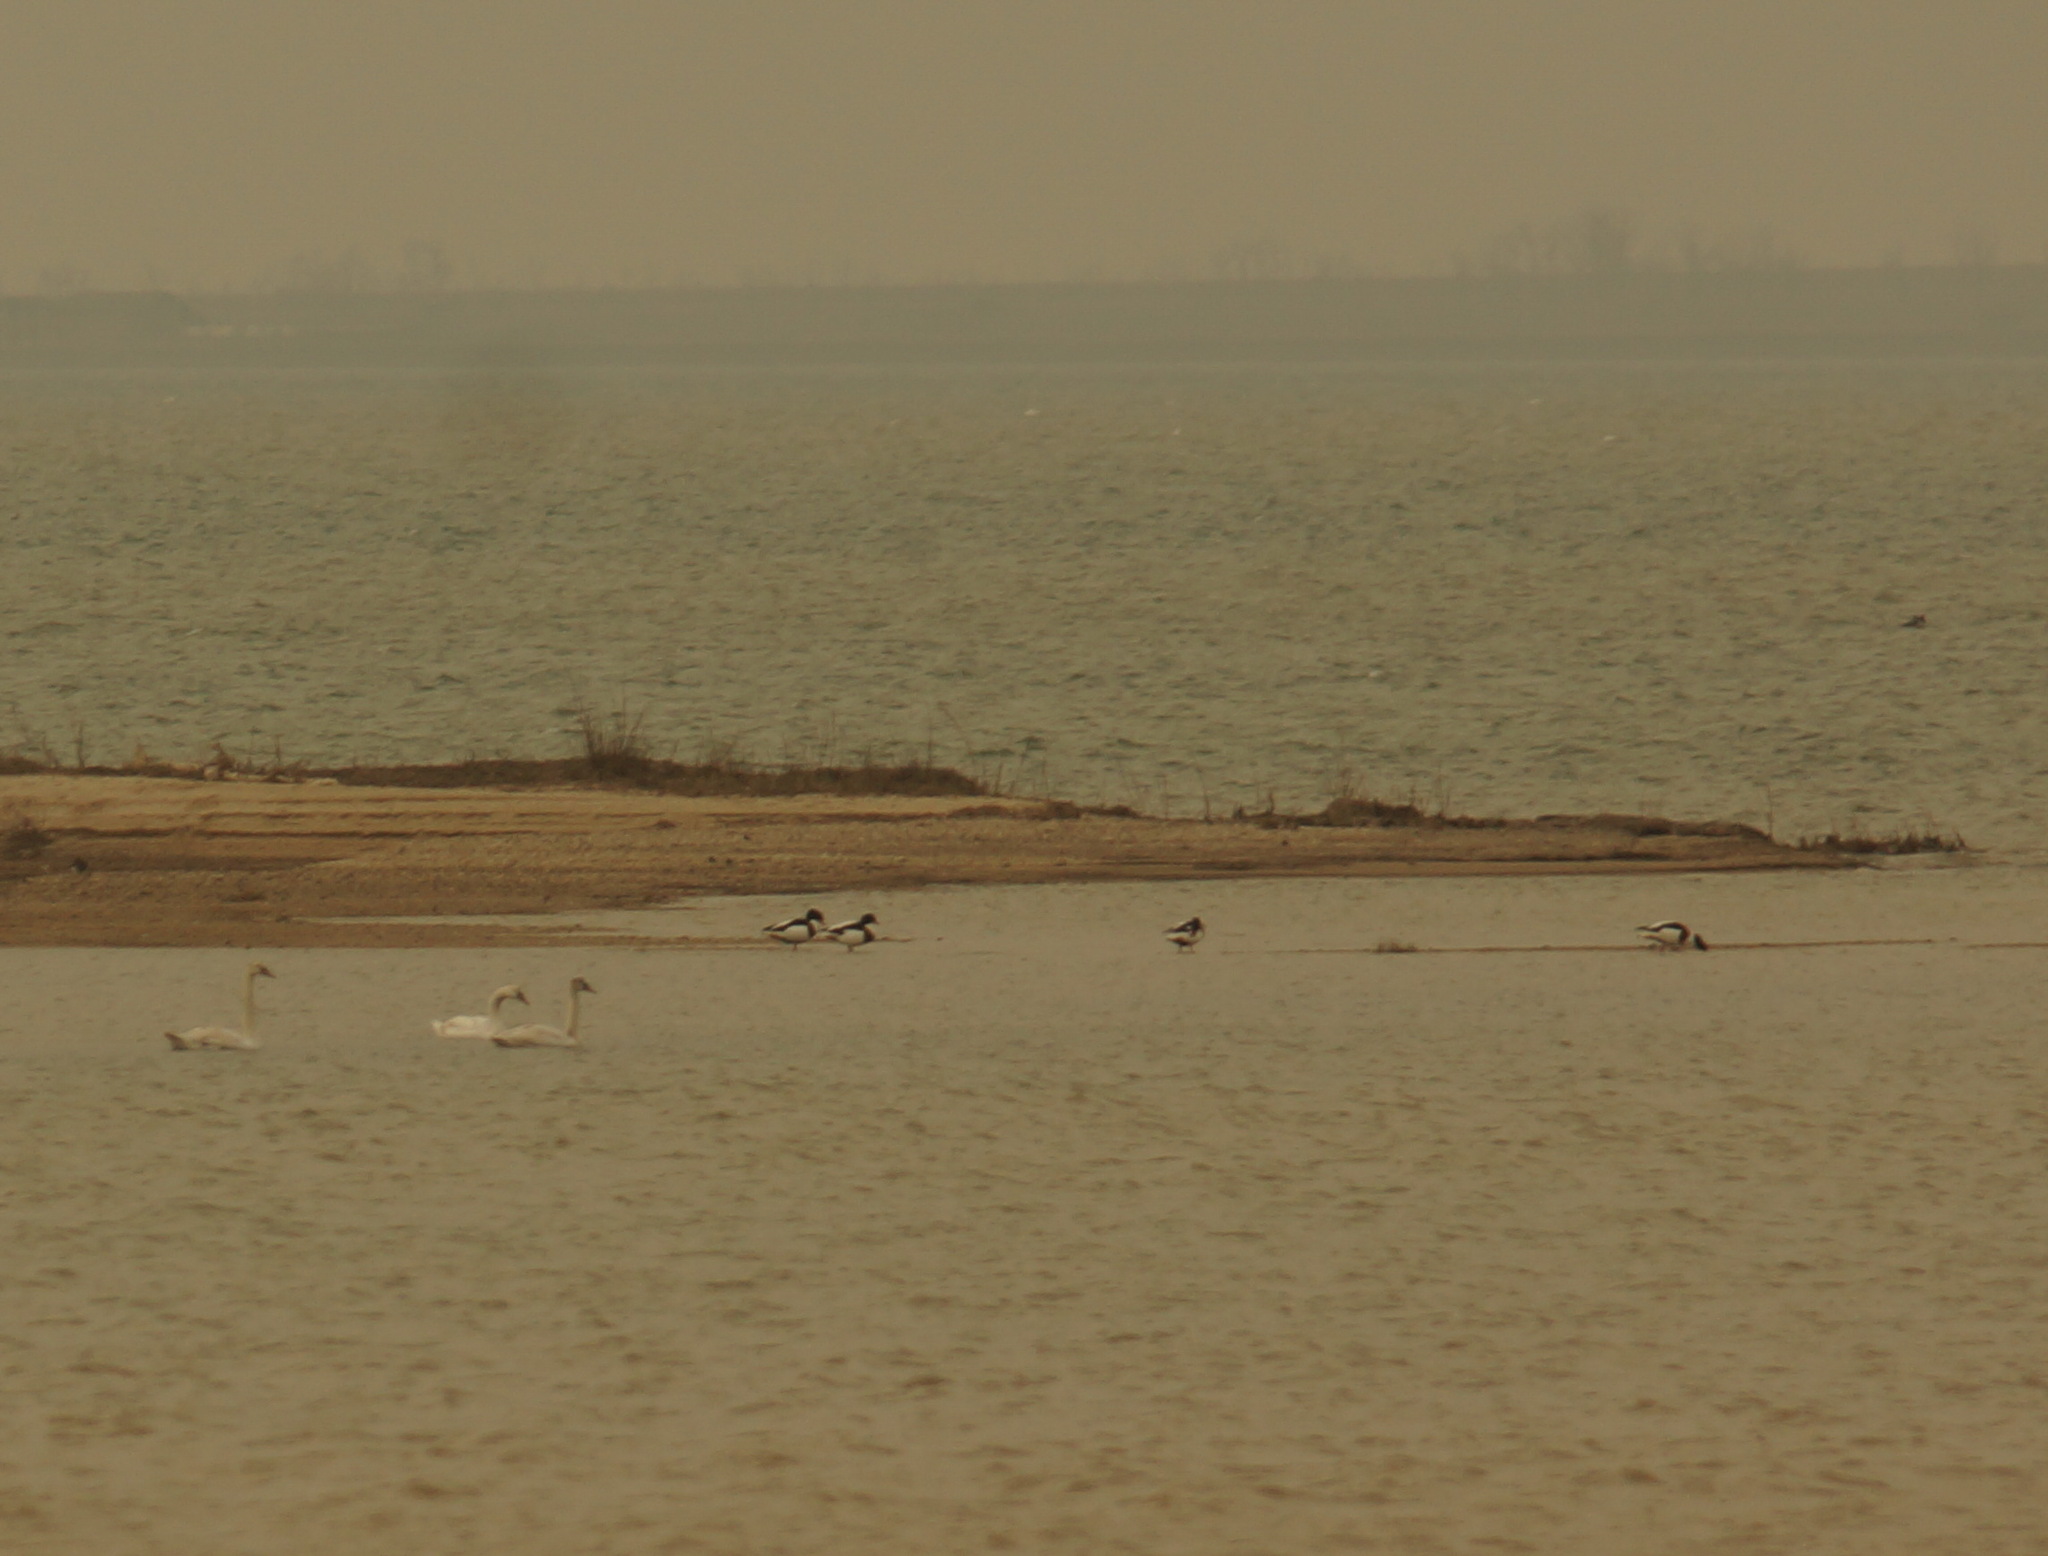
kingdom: Animalia
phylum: Chordata
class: Aves
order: Anseriformes
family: Anatidae
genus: Cygnus
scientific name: Cygnus olor
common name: Mute swan
